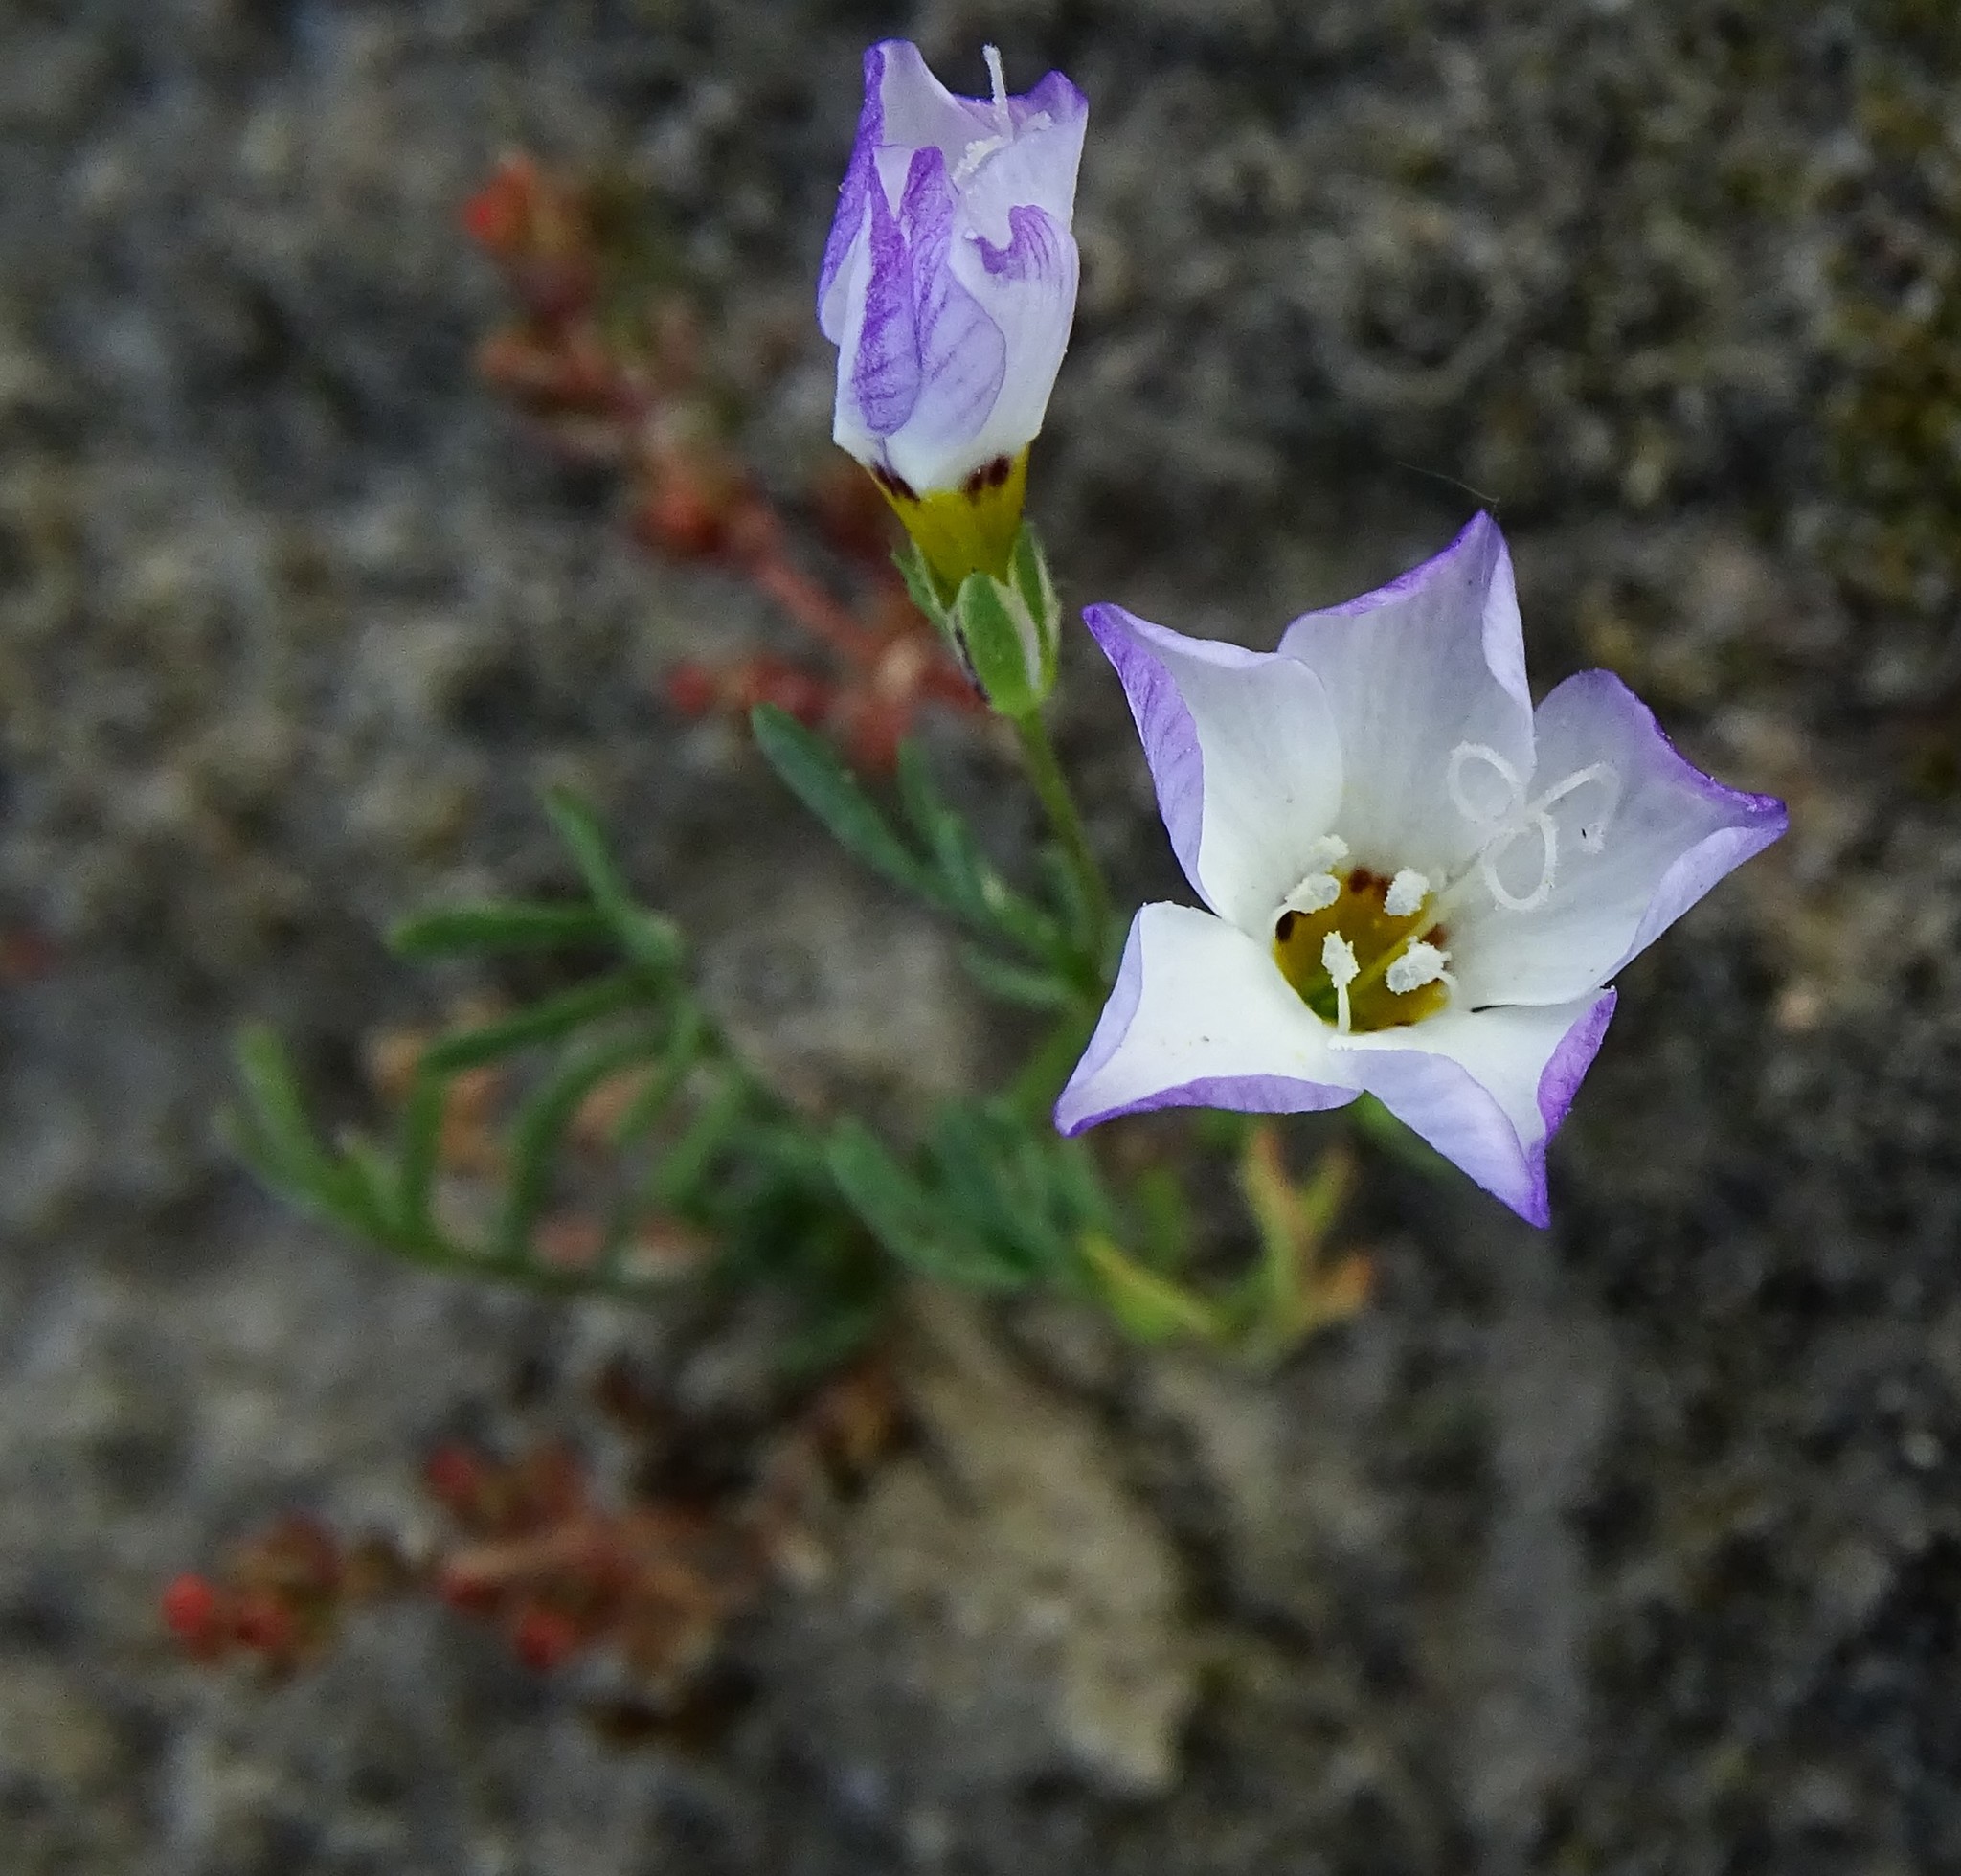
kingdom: Plantae
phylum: Tracheophyta
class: Magnoliopsida
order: Ericales
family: Polemoniaceae
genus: Gilia
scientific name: Gilia tricolor
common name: Bird's-eyes
